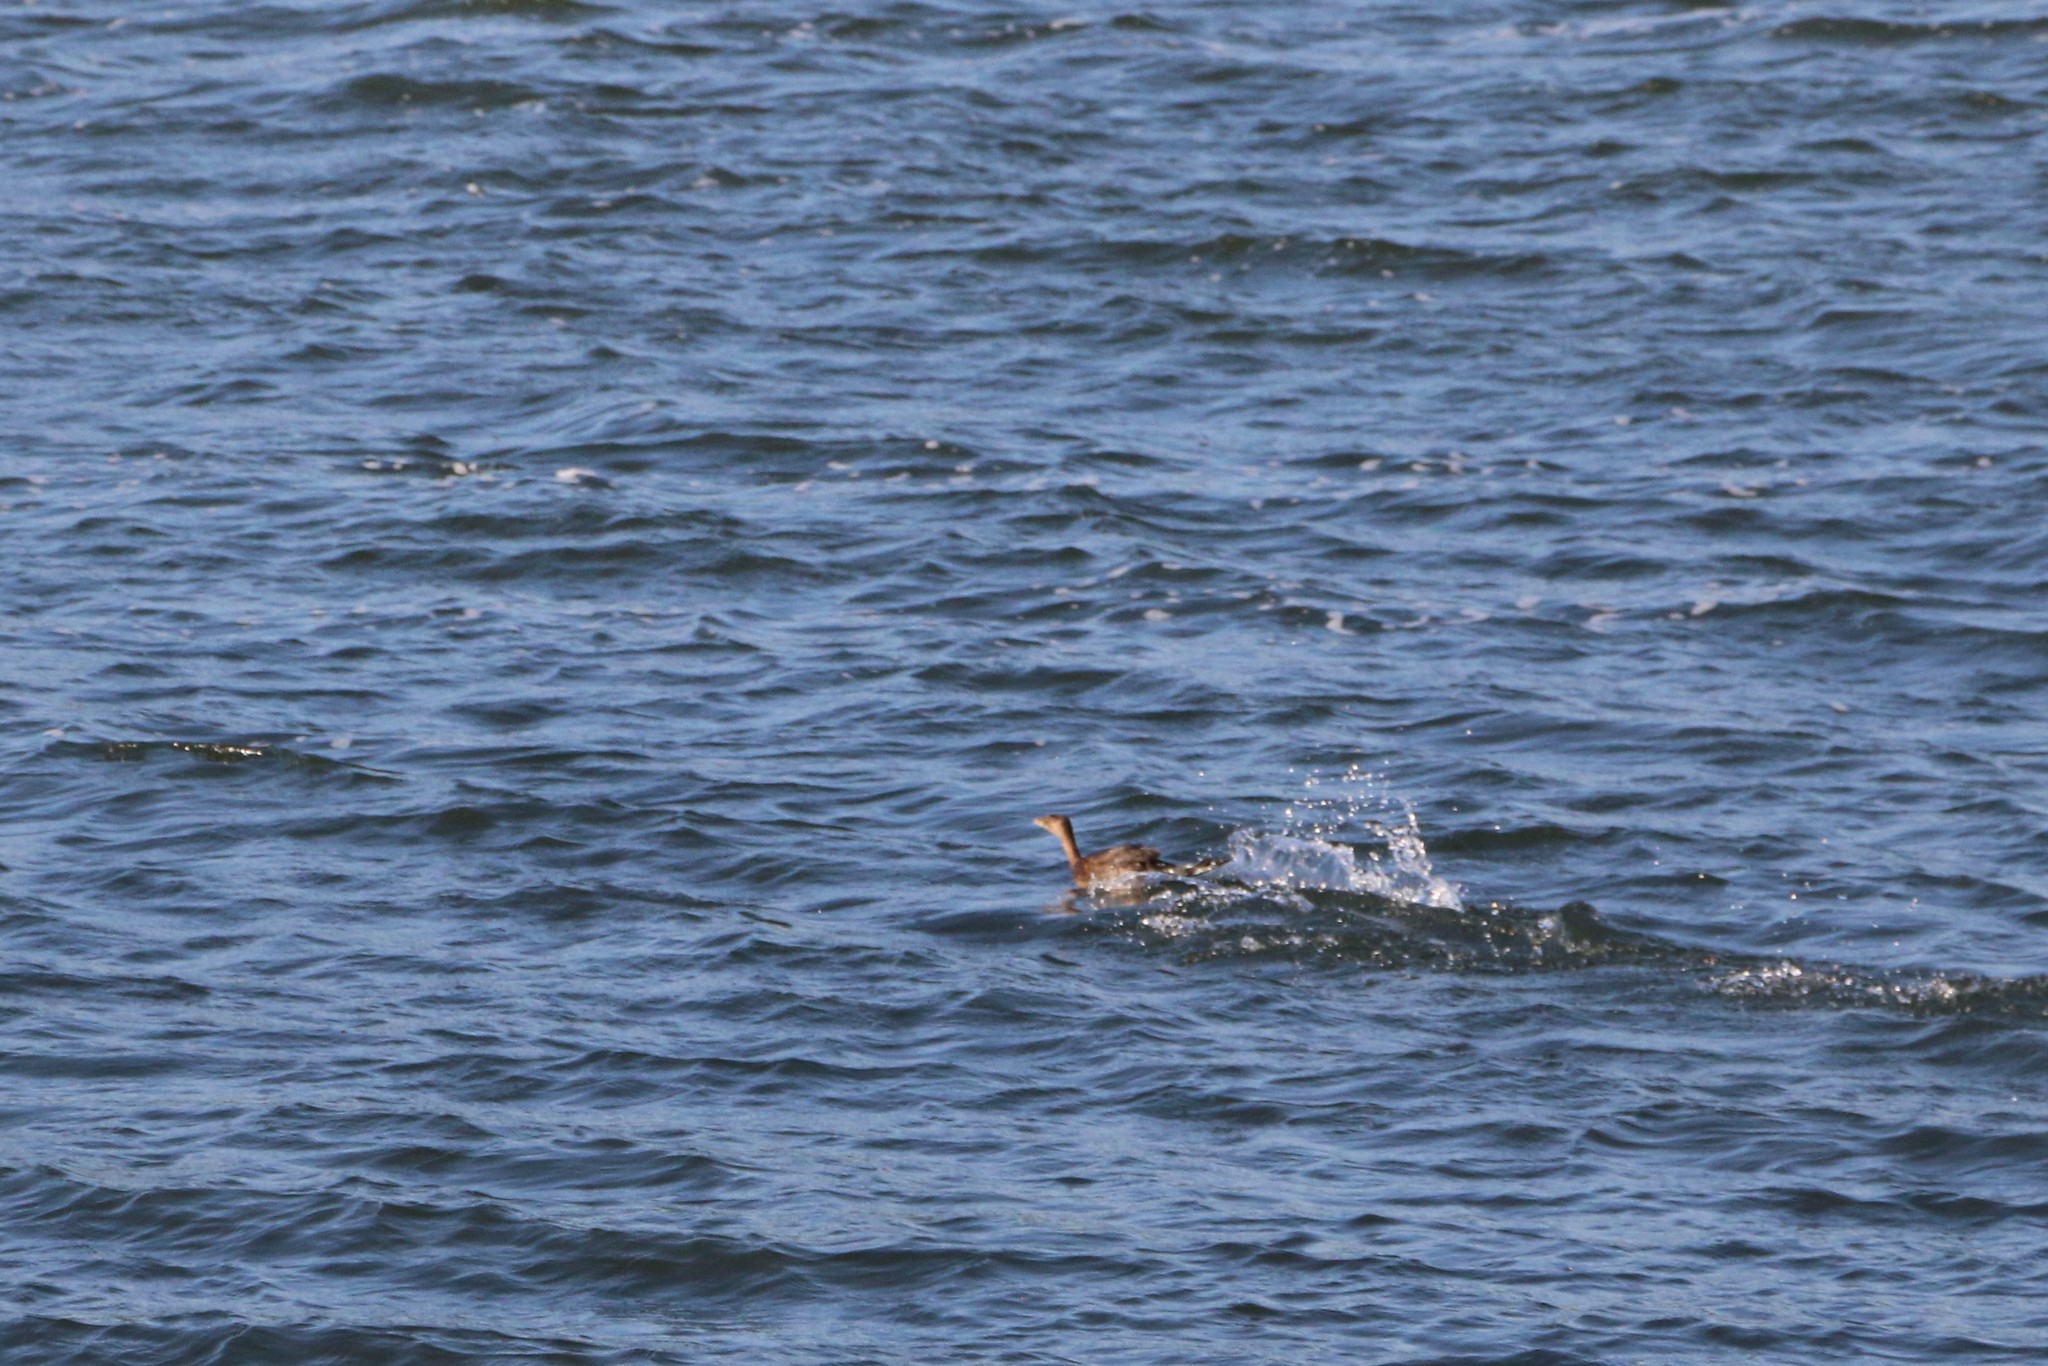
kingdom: Animalia
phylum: Chordata
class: Aves
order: Podicipediformes
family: Podicipedidae
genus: Podilymbus
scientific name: Podilymbus podiceps
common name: Pied-billed grebe
